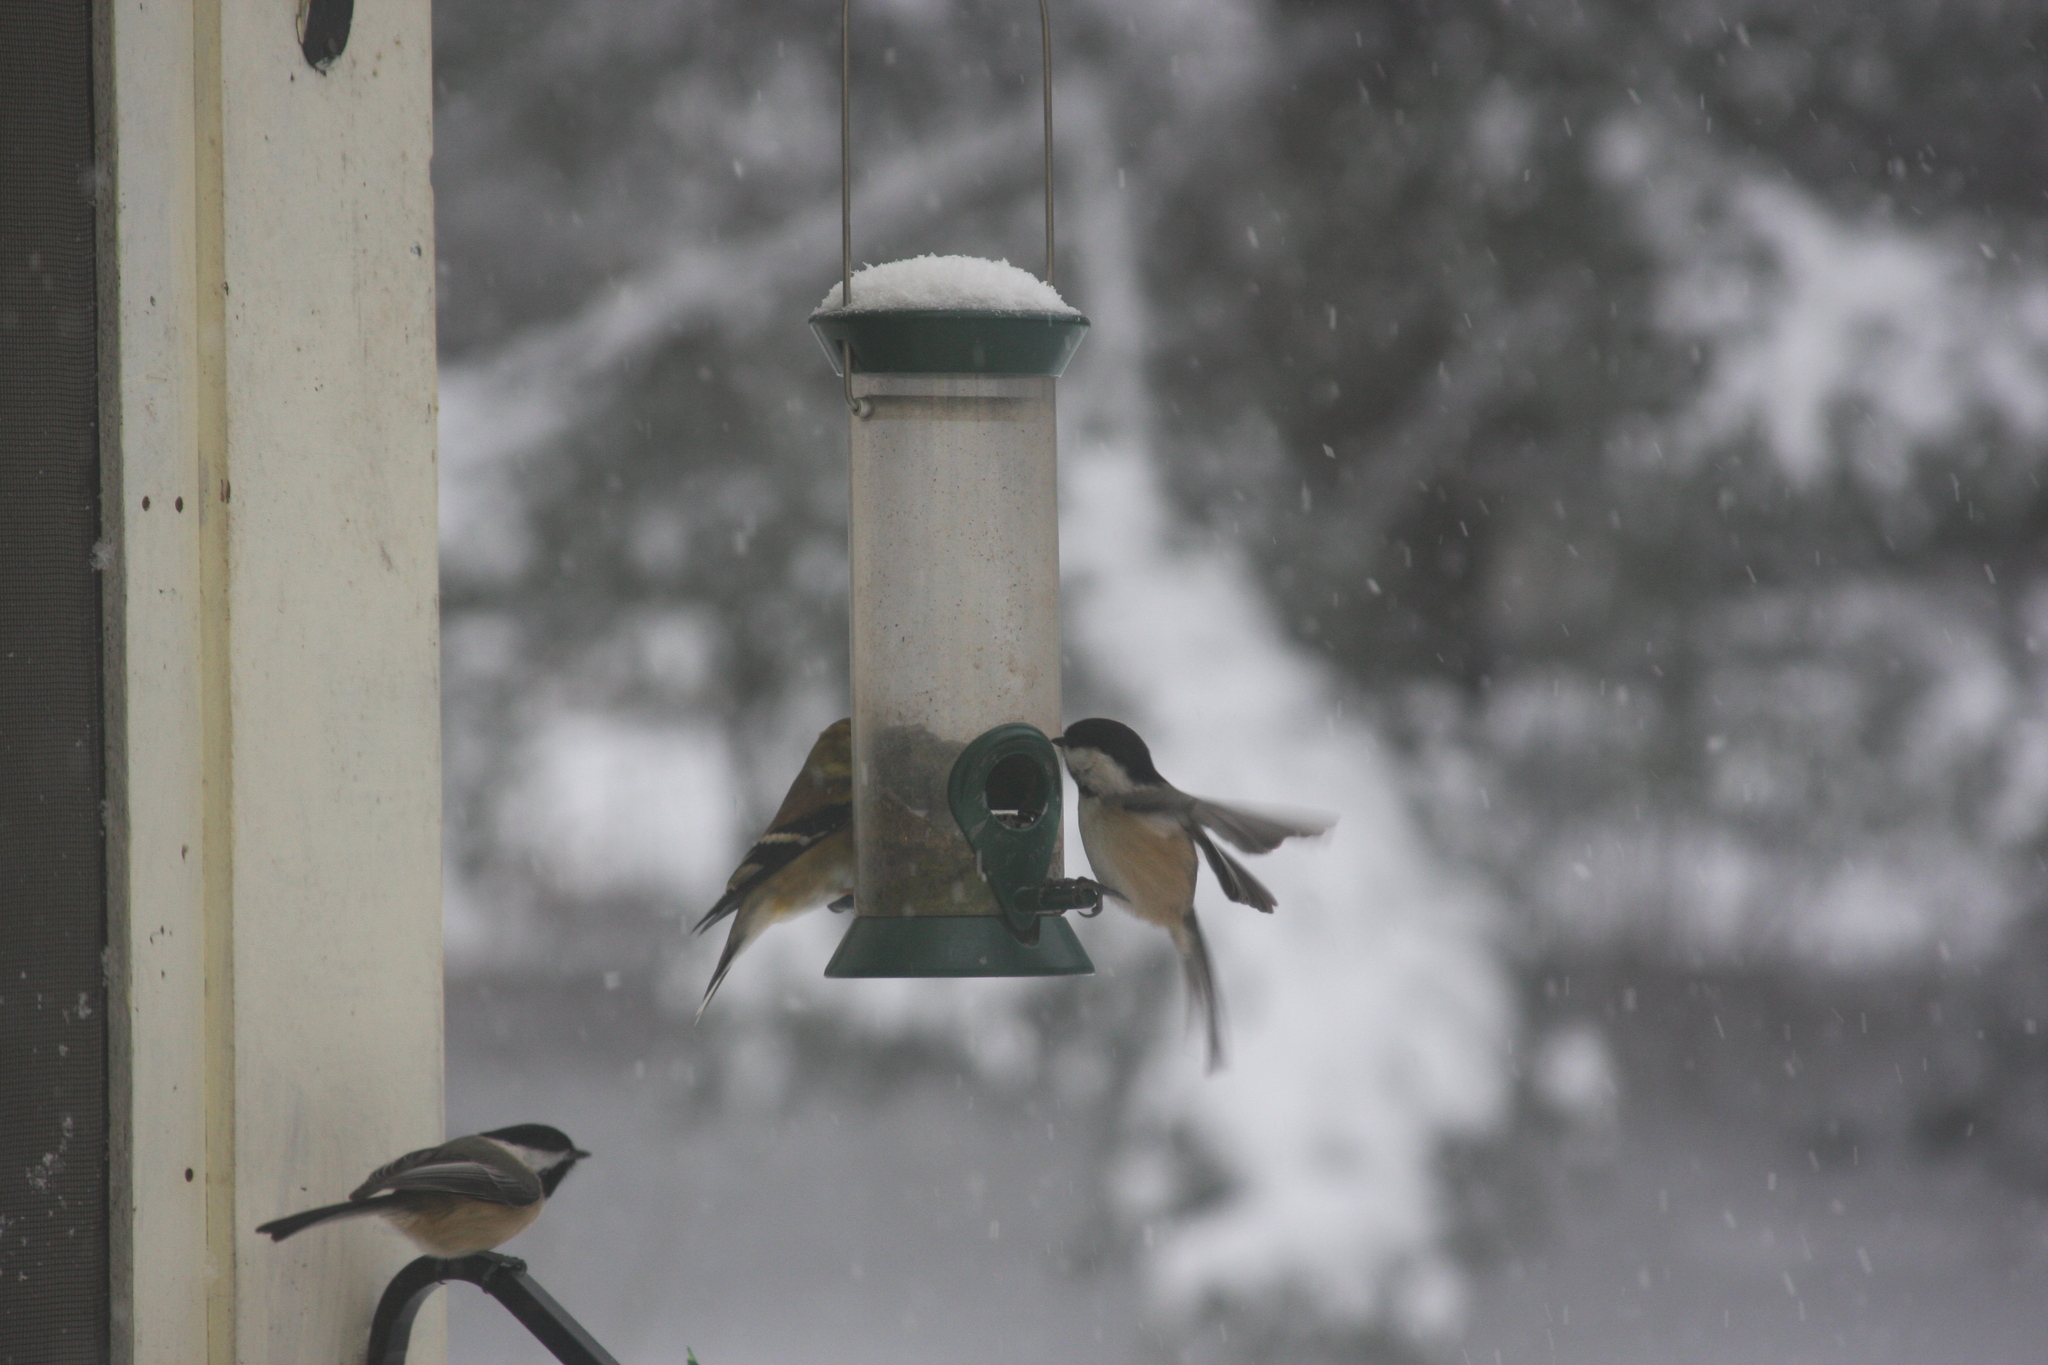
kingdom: Animalia
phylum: Chordata
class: Aves
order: Passeriformes
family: Paridae
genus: Poecile
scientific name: Poecile atricapillus
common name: Black-capped chickadee
